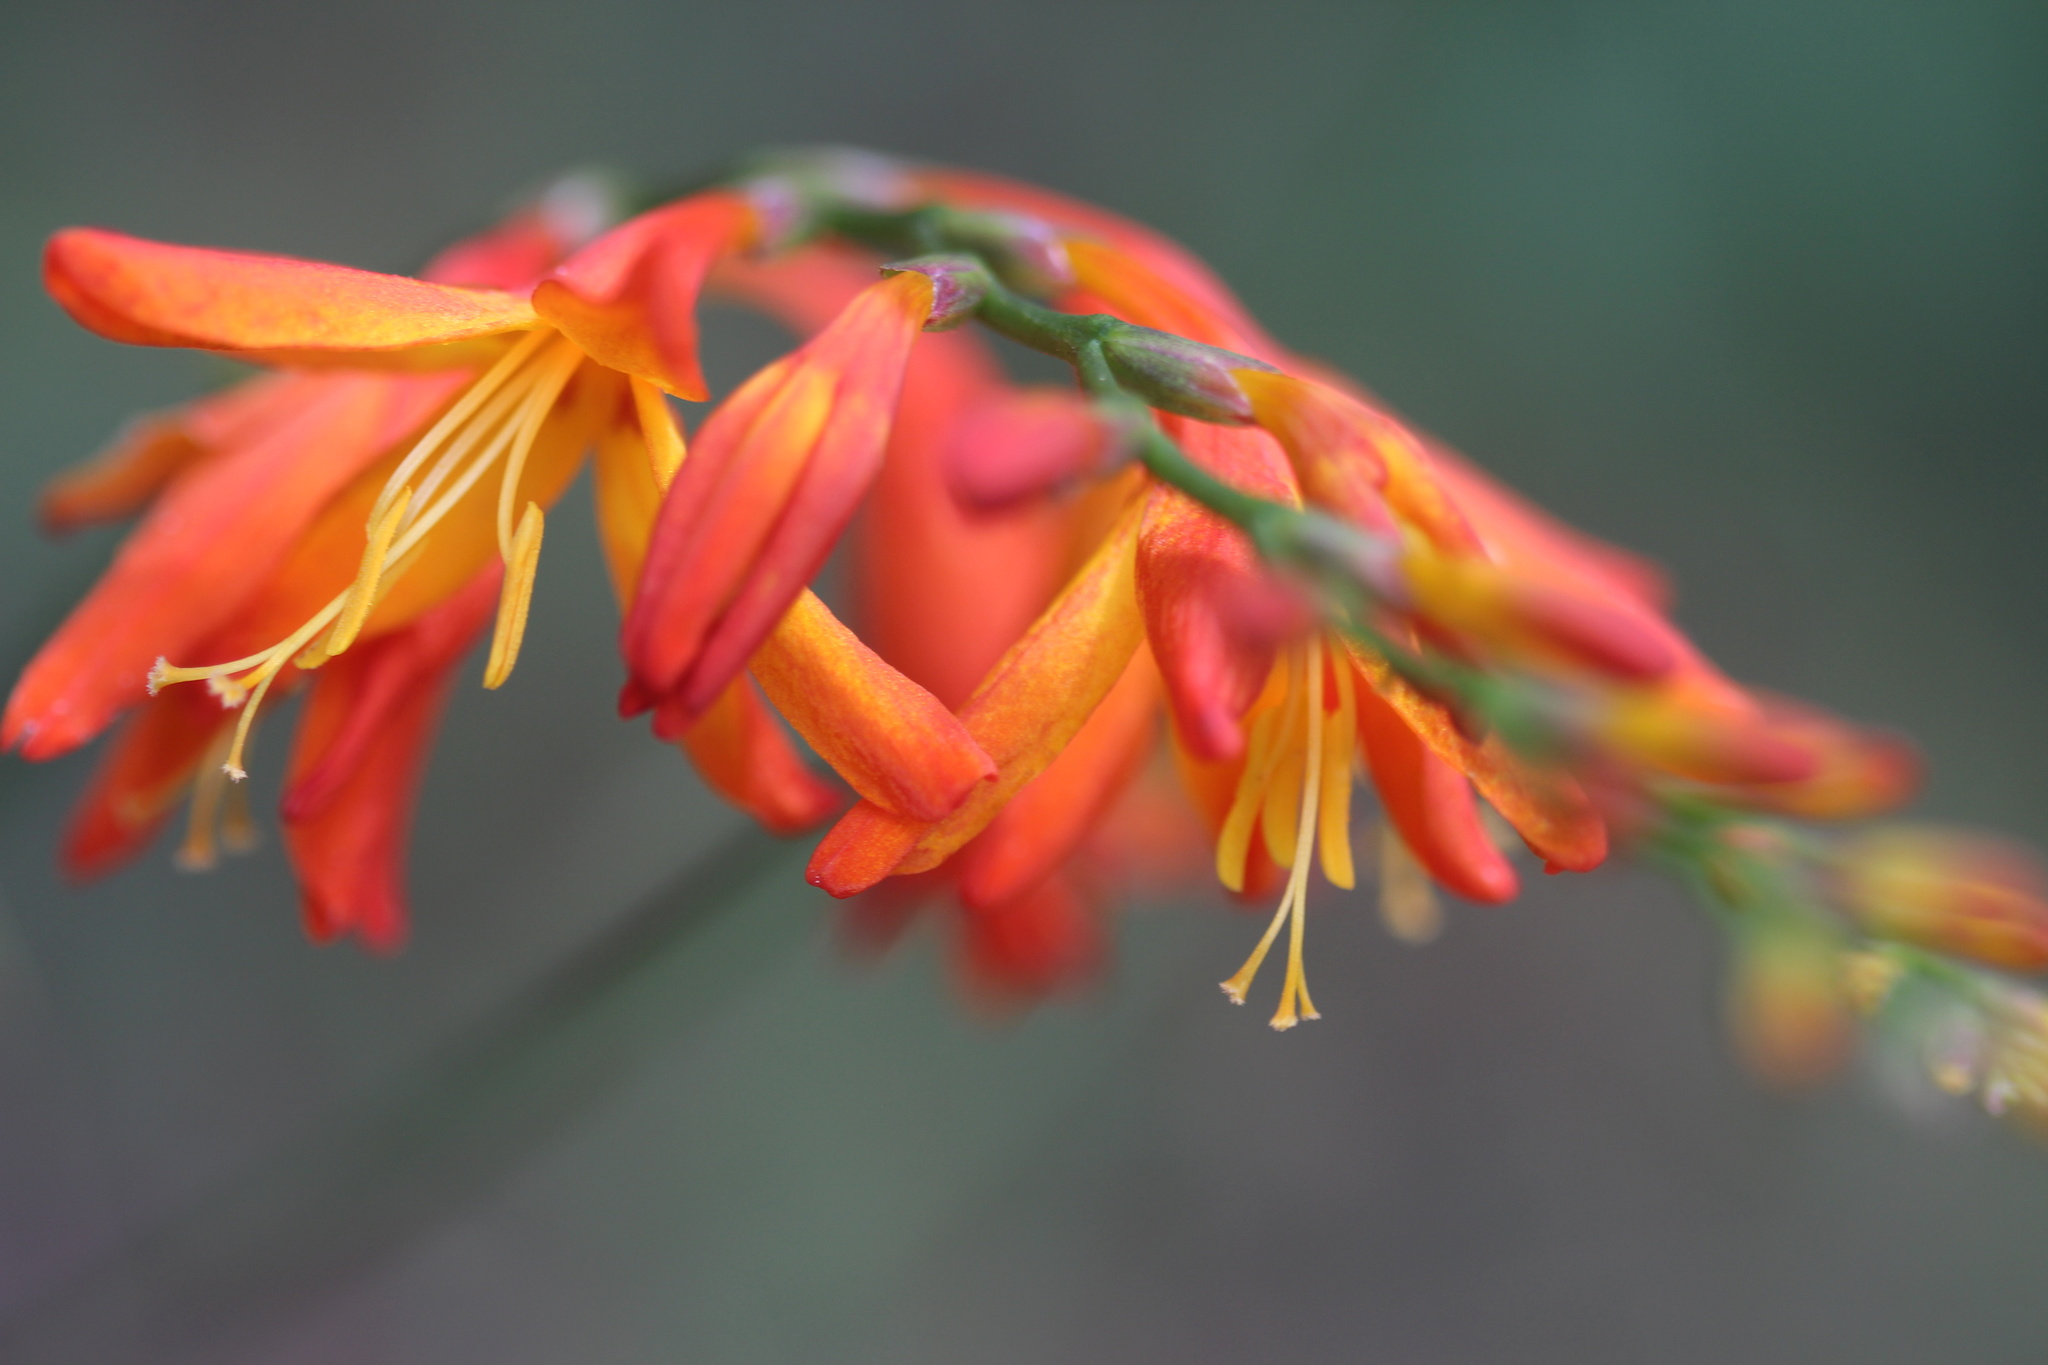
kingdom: Plantae
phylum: Tracheophyta
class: Liliopsida
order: Asparagales
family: Iridaceae
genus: Crocosmia
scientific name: Crocosmia crocosmiiflora
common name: Montbretia
